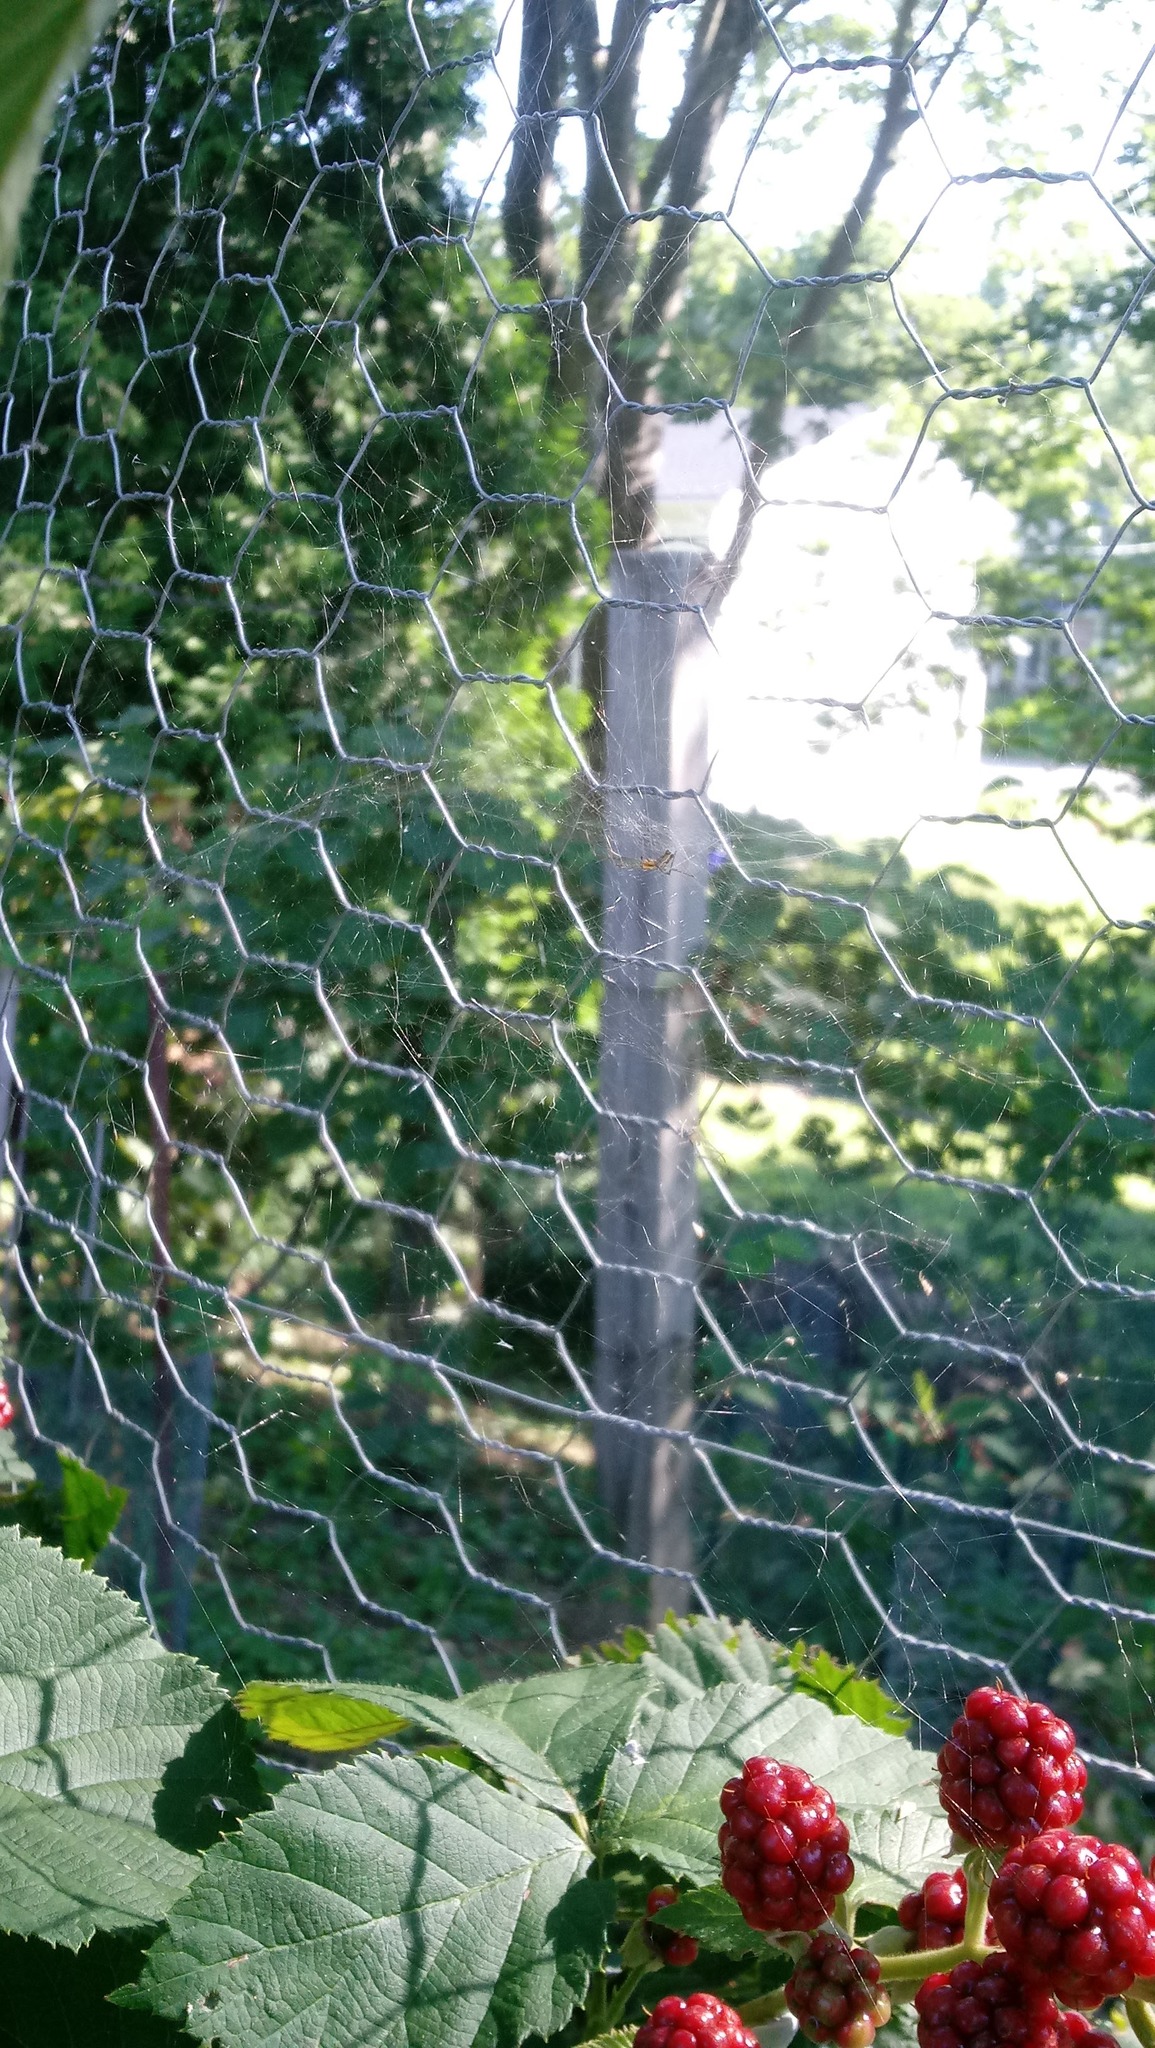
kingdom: Animalia
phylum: Arthropoda
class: Arachnida
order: Araneae
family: Araneidae
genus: Mecynogea
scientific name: Mecynogea lemniscata
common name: Orb weavers
